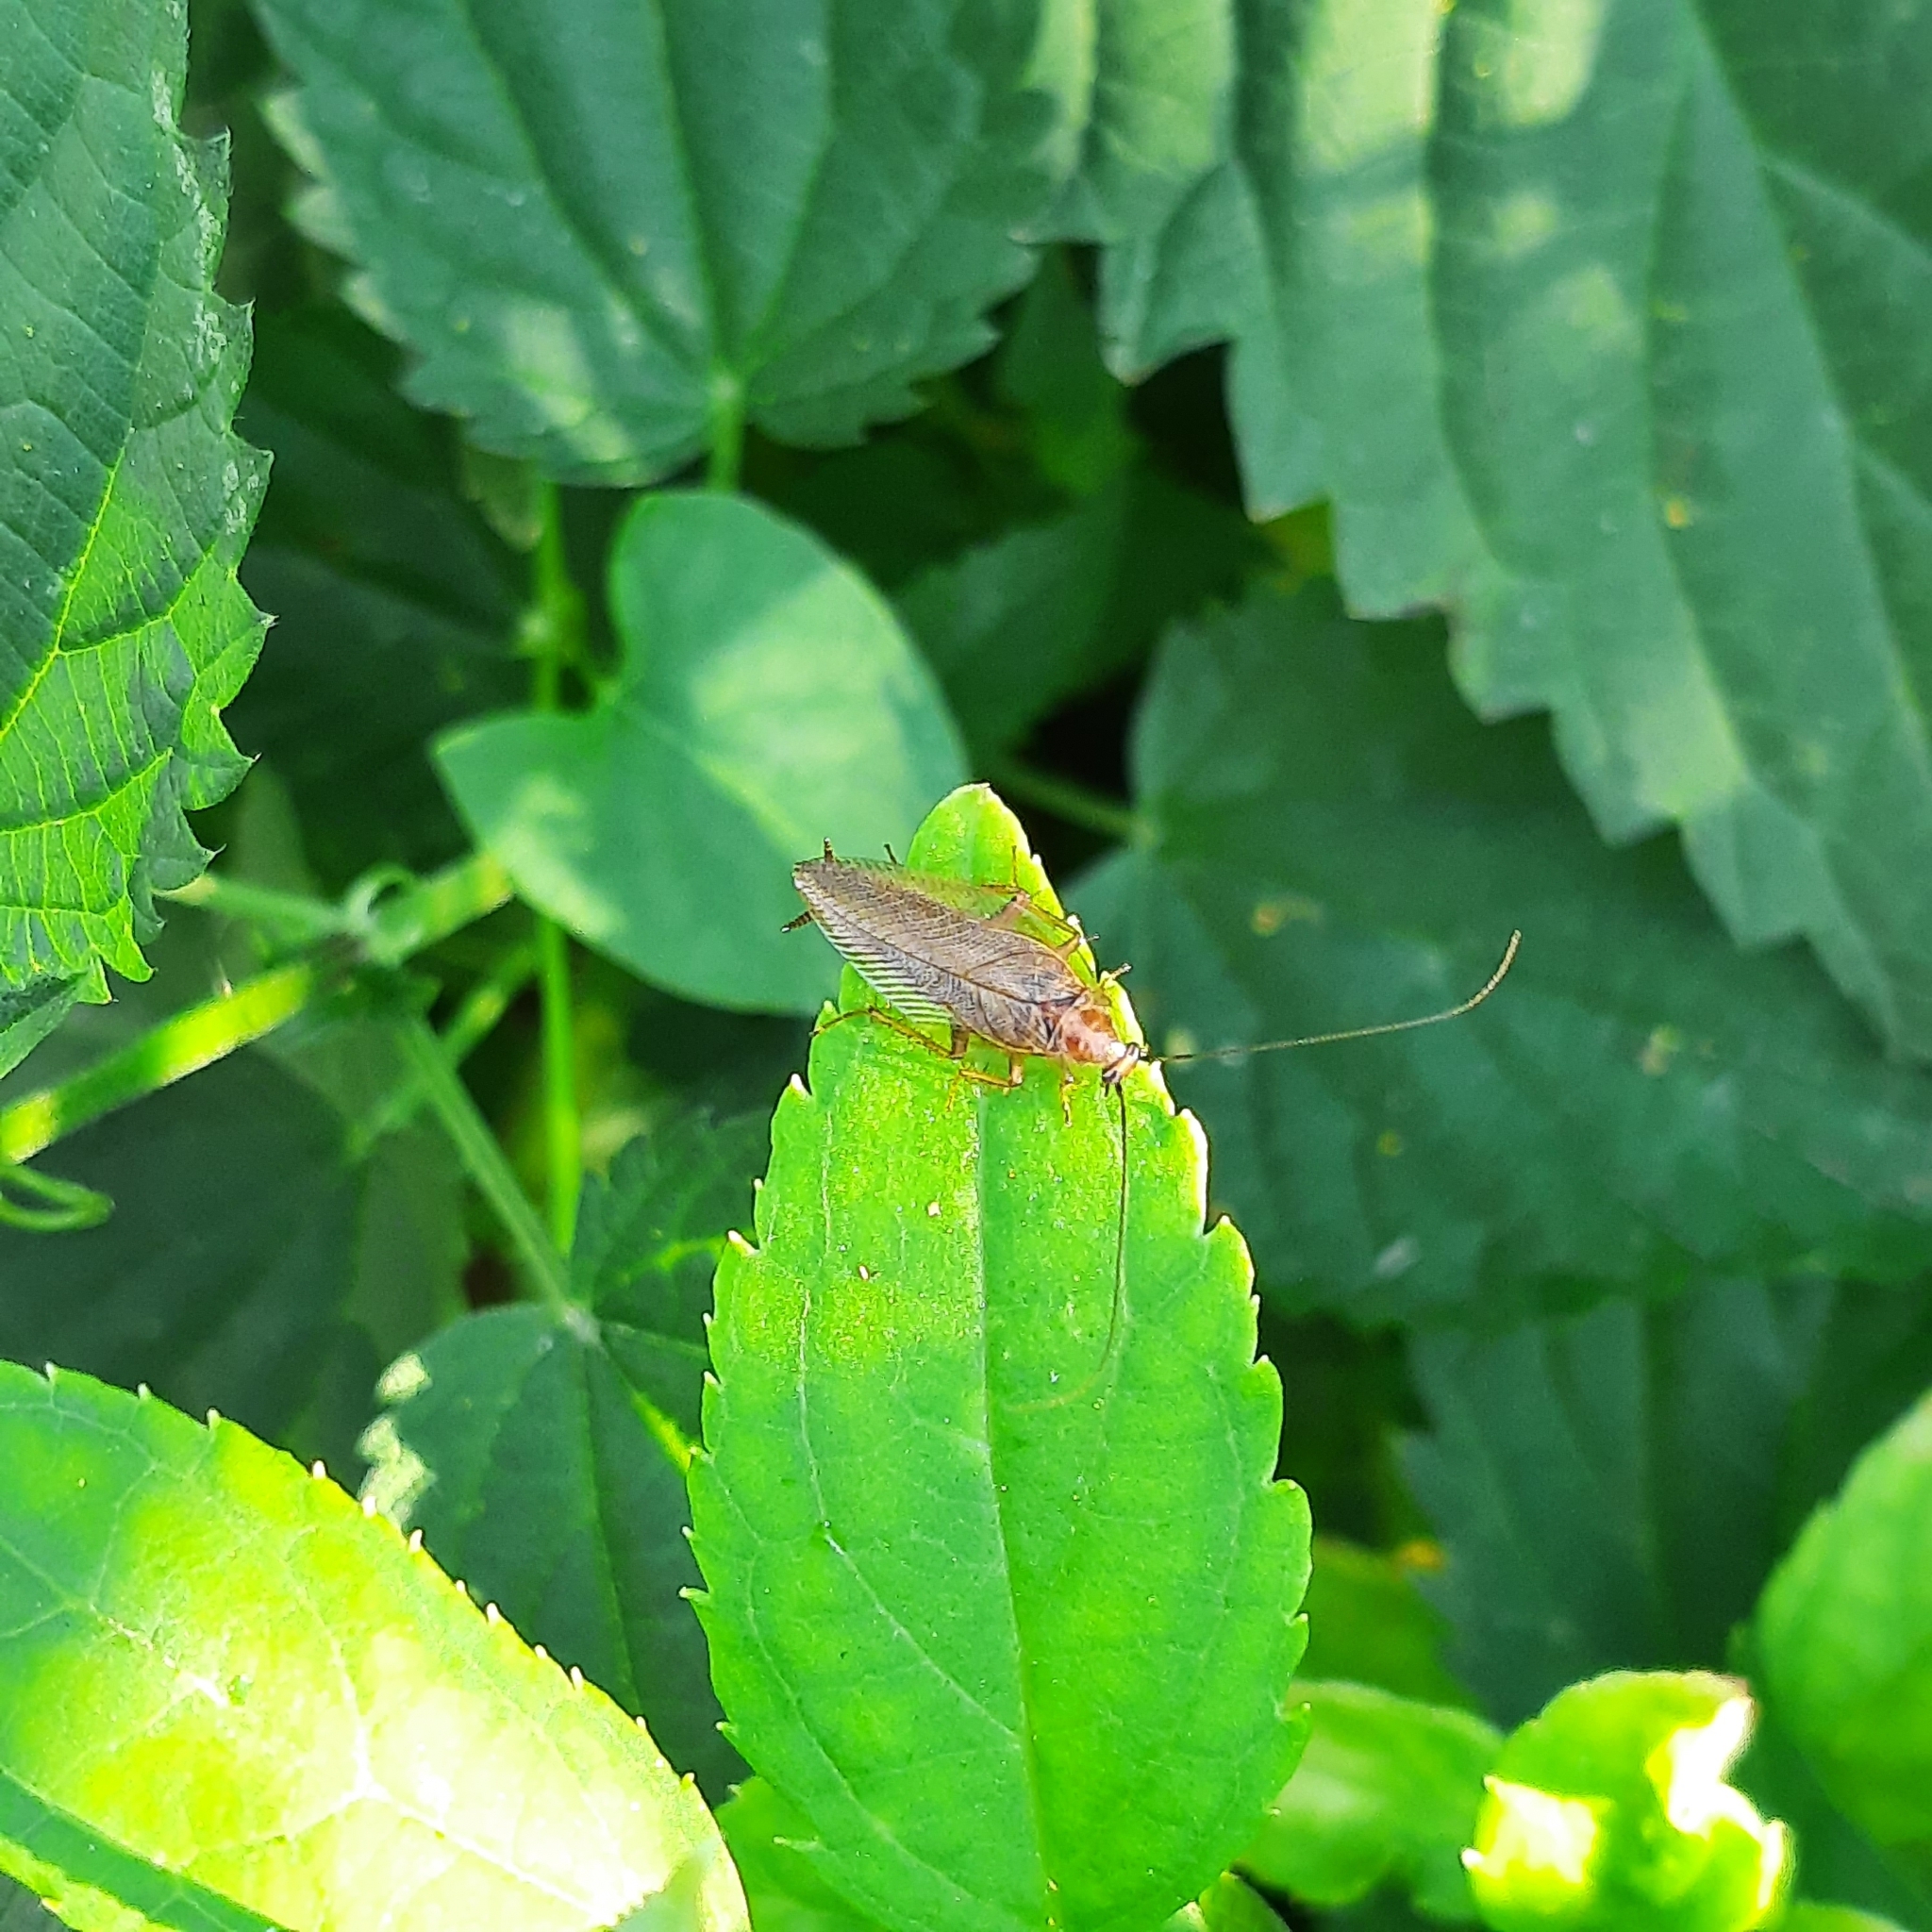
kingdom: Animalia
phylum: Arthropoda
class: Insecta
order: Blattodea
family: Ectobiidae
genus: Ectobius
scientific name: Ectobius vittiventris
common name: Garden cockroach
